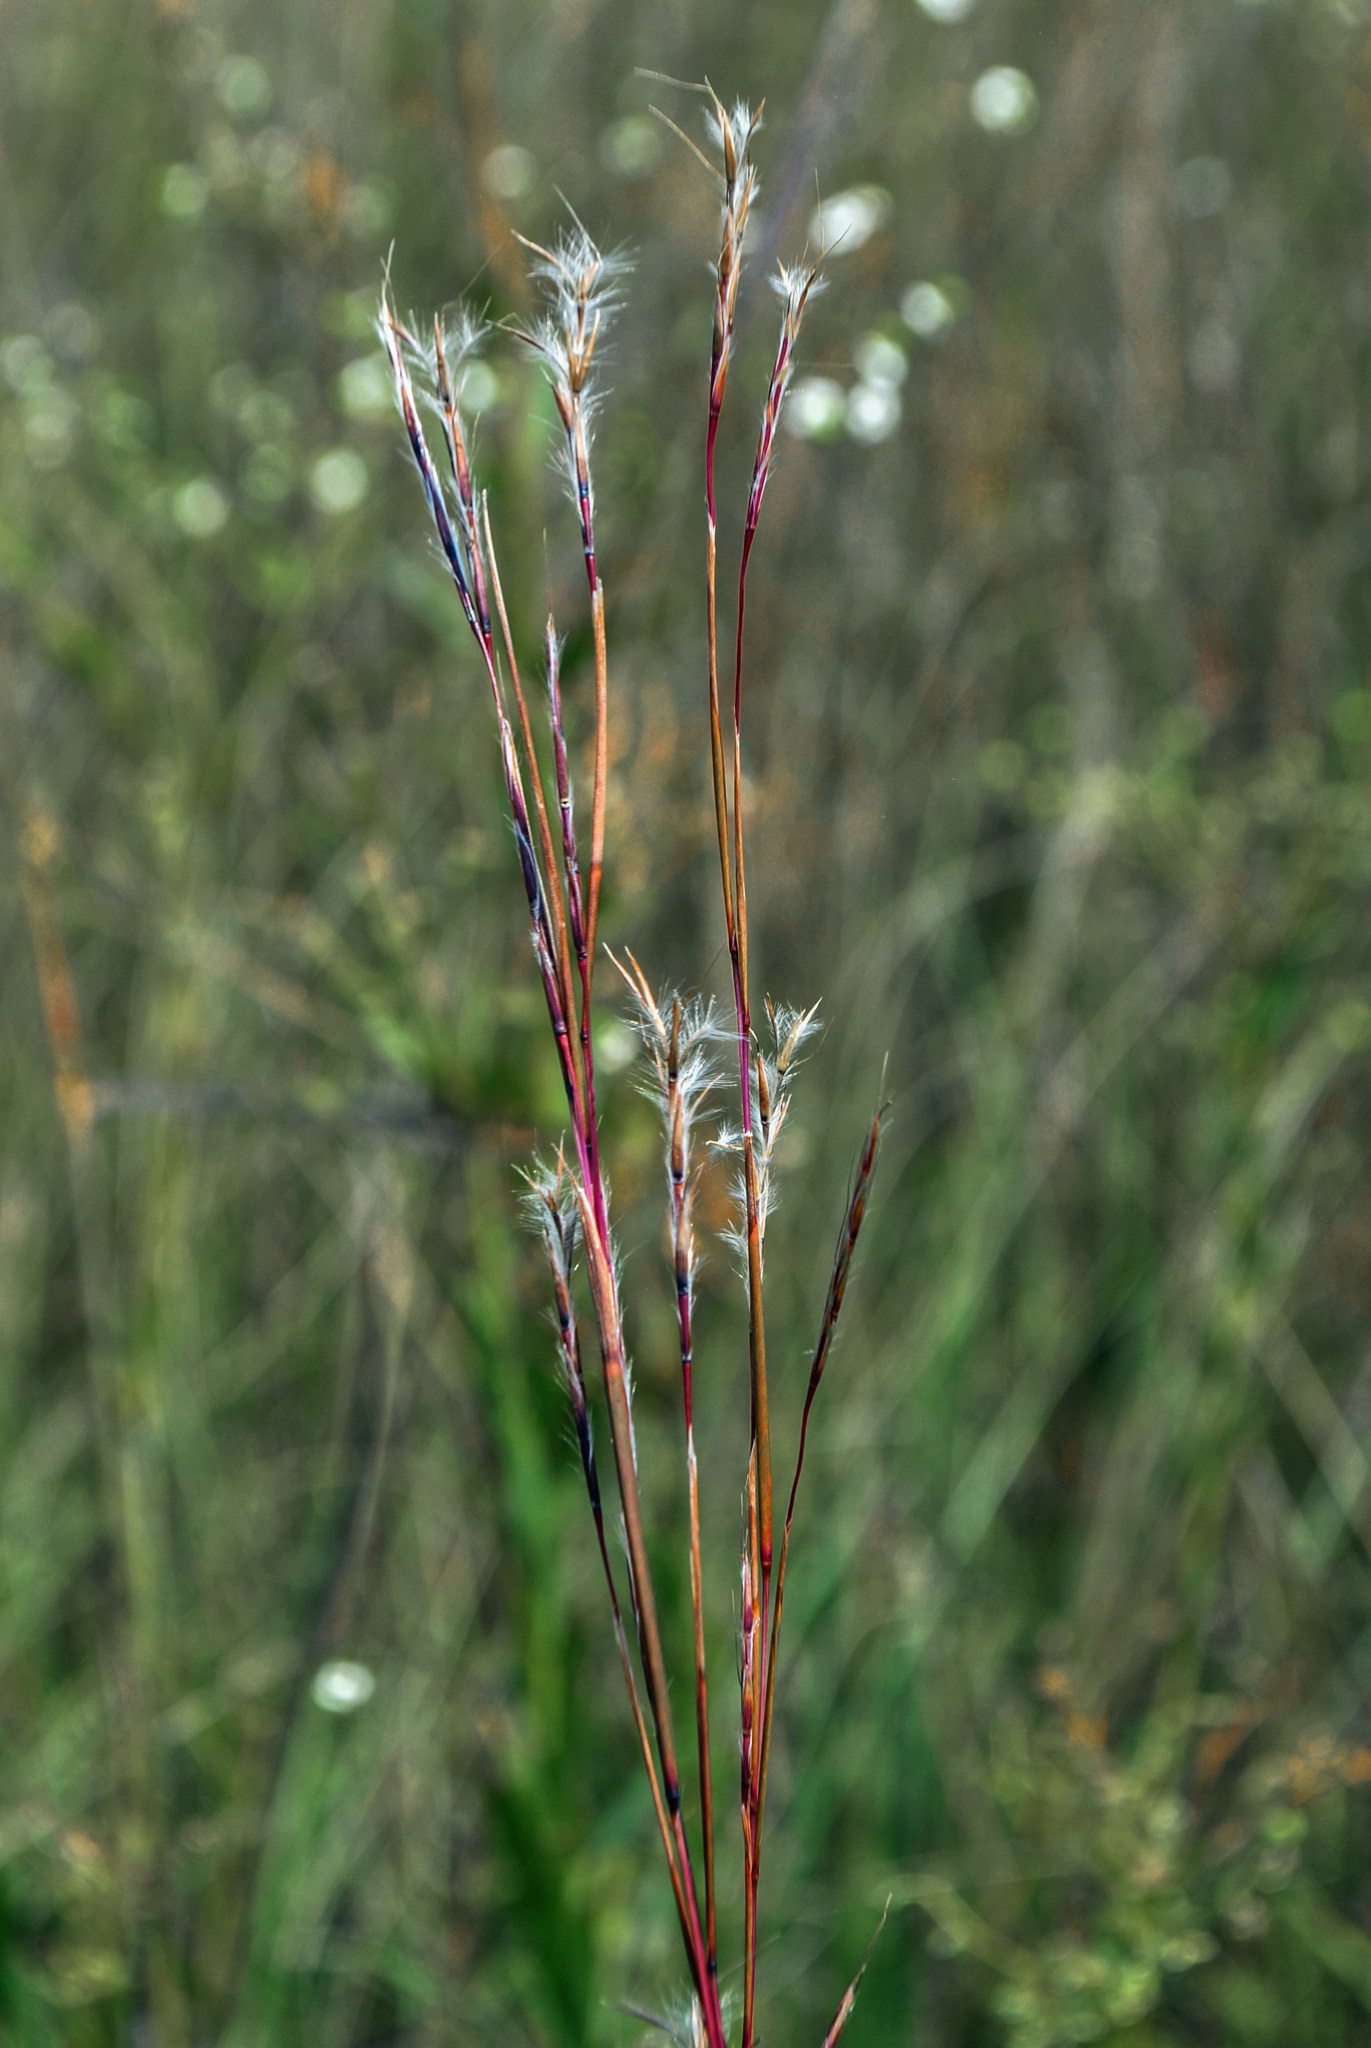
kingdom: Plantae
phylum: Tracheophyta
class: Liliopsida
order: Poales
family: Poaceae
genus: Schizachyrium
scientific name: Schizachyrium scoparium
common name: Little bluestem
